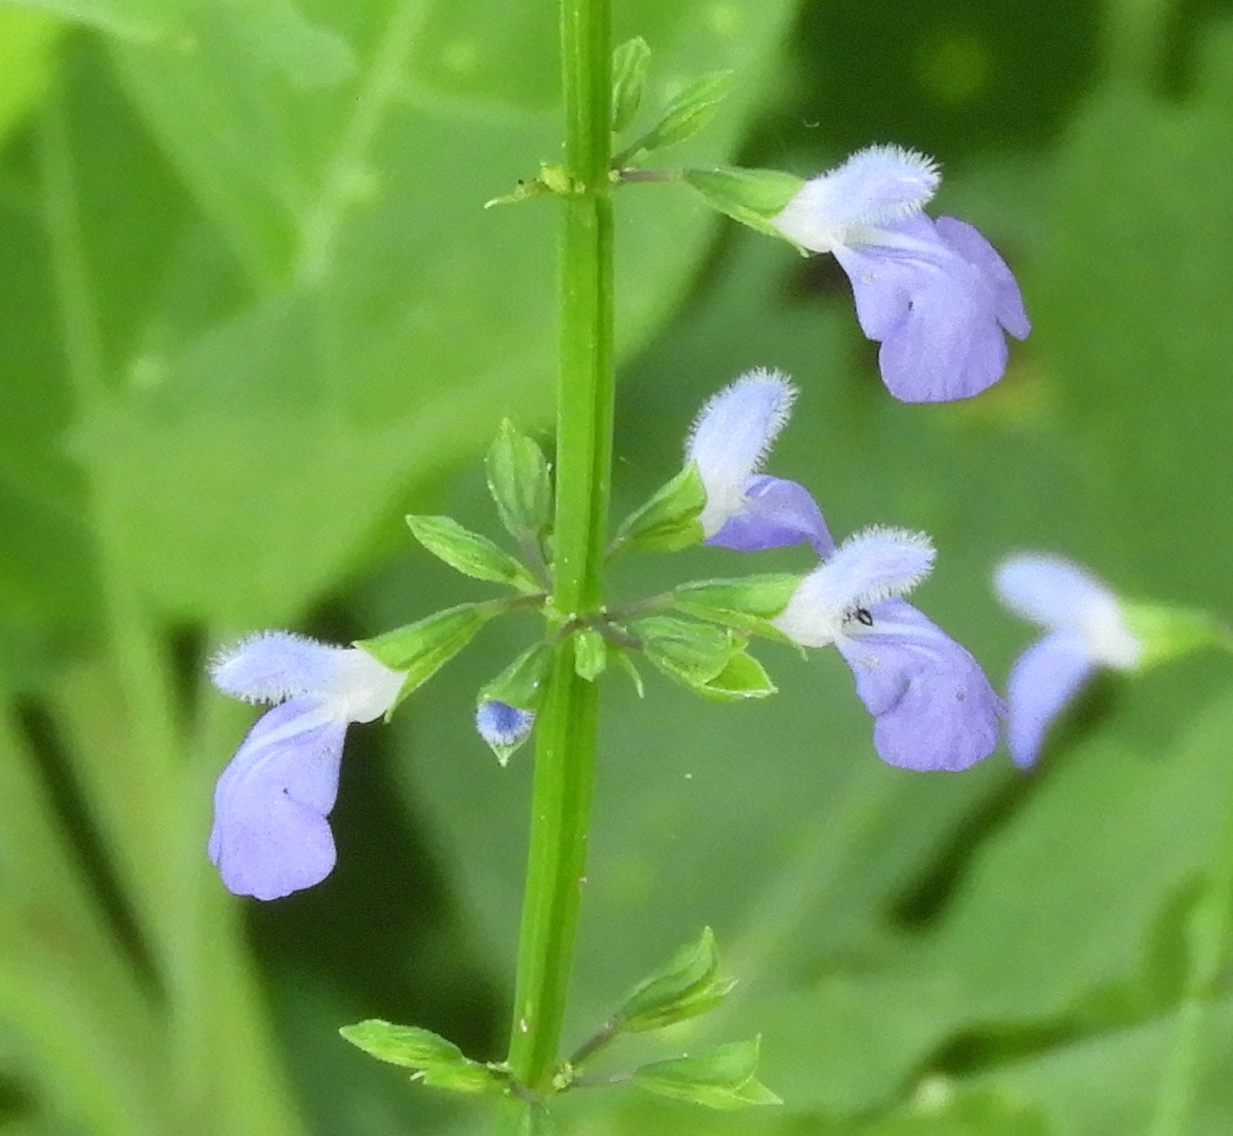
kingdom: Plantae
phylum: Tracheophyta
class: Magnoliopsida
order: Lamiales
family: Lamiaceae
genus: Salvia
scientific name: Salvia languidula
